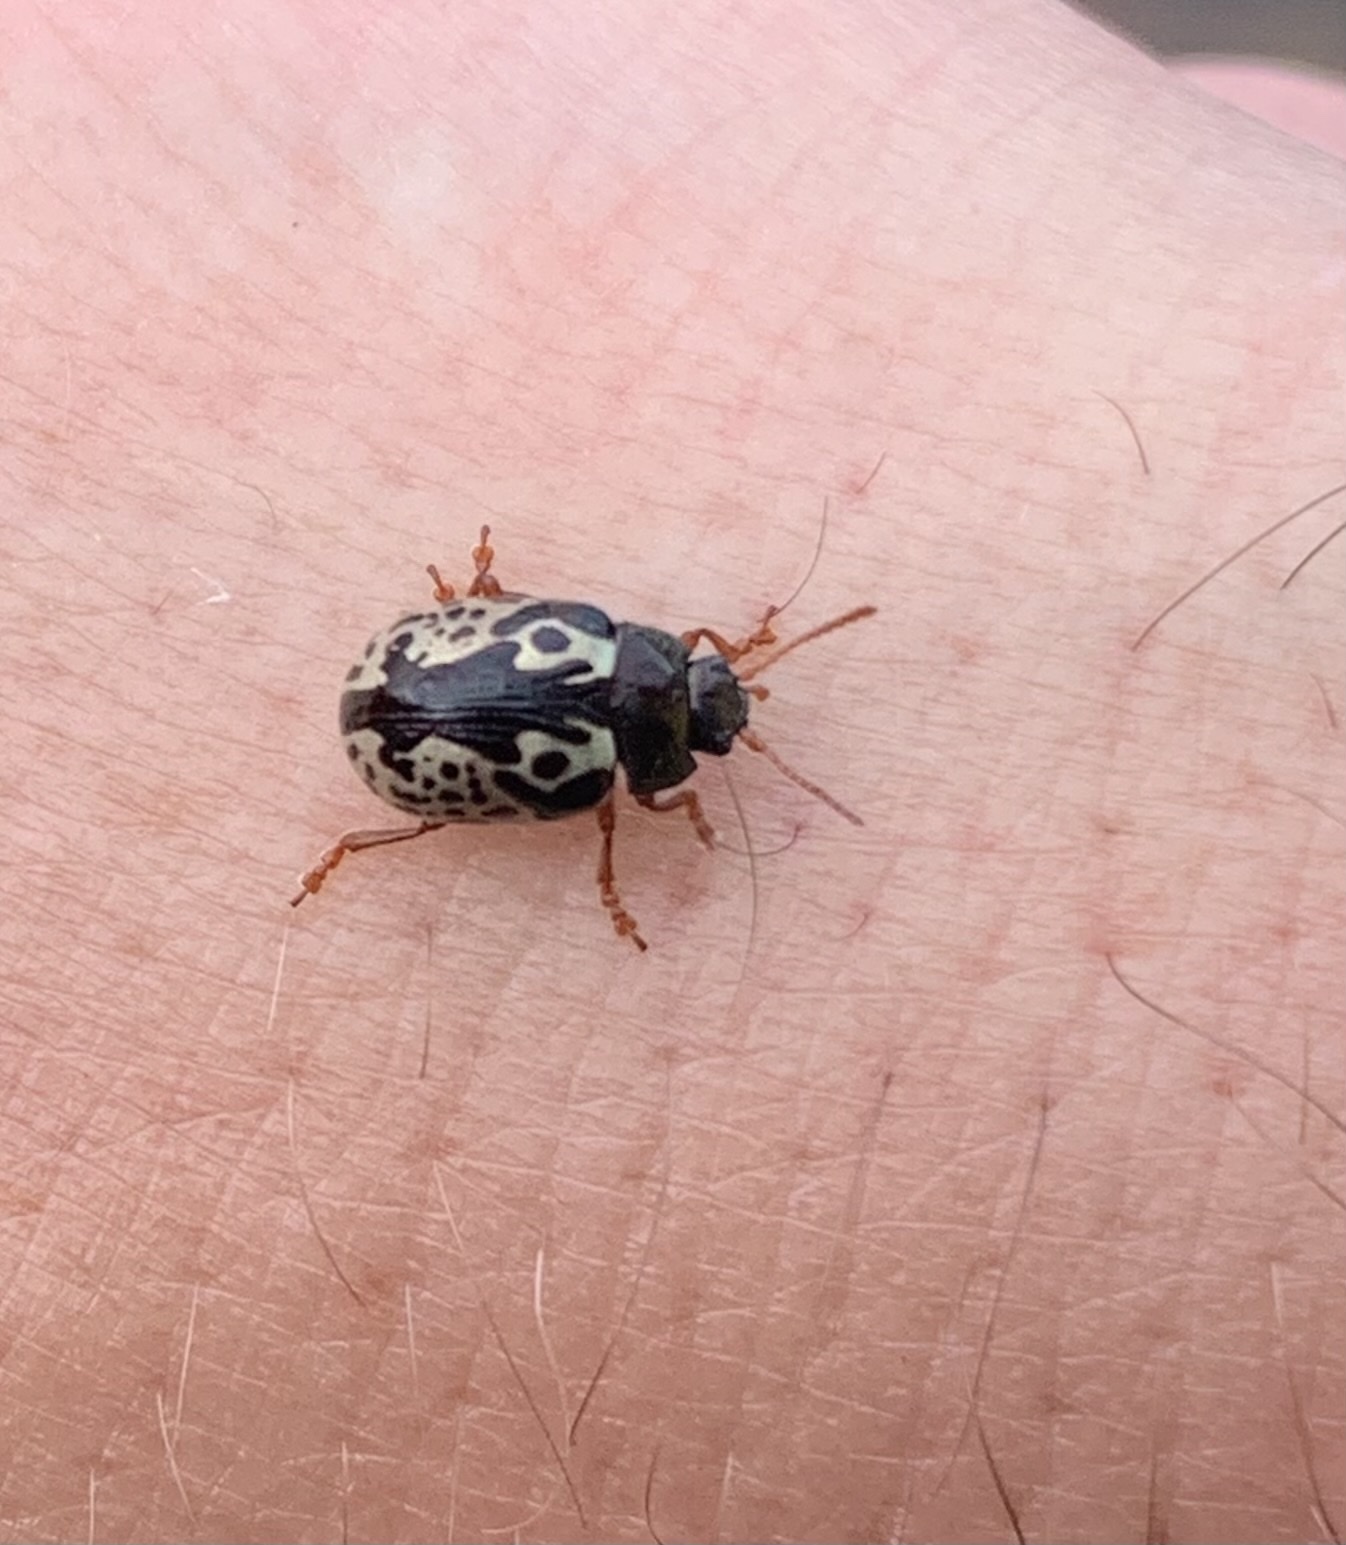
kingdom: Animalia
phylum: Arthropoda
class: Insecta
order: Coleoptera
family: Chrysomelidae
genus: Calligrapha
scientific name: Calligrapha confluens
